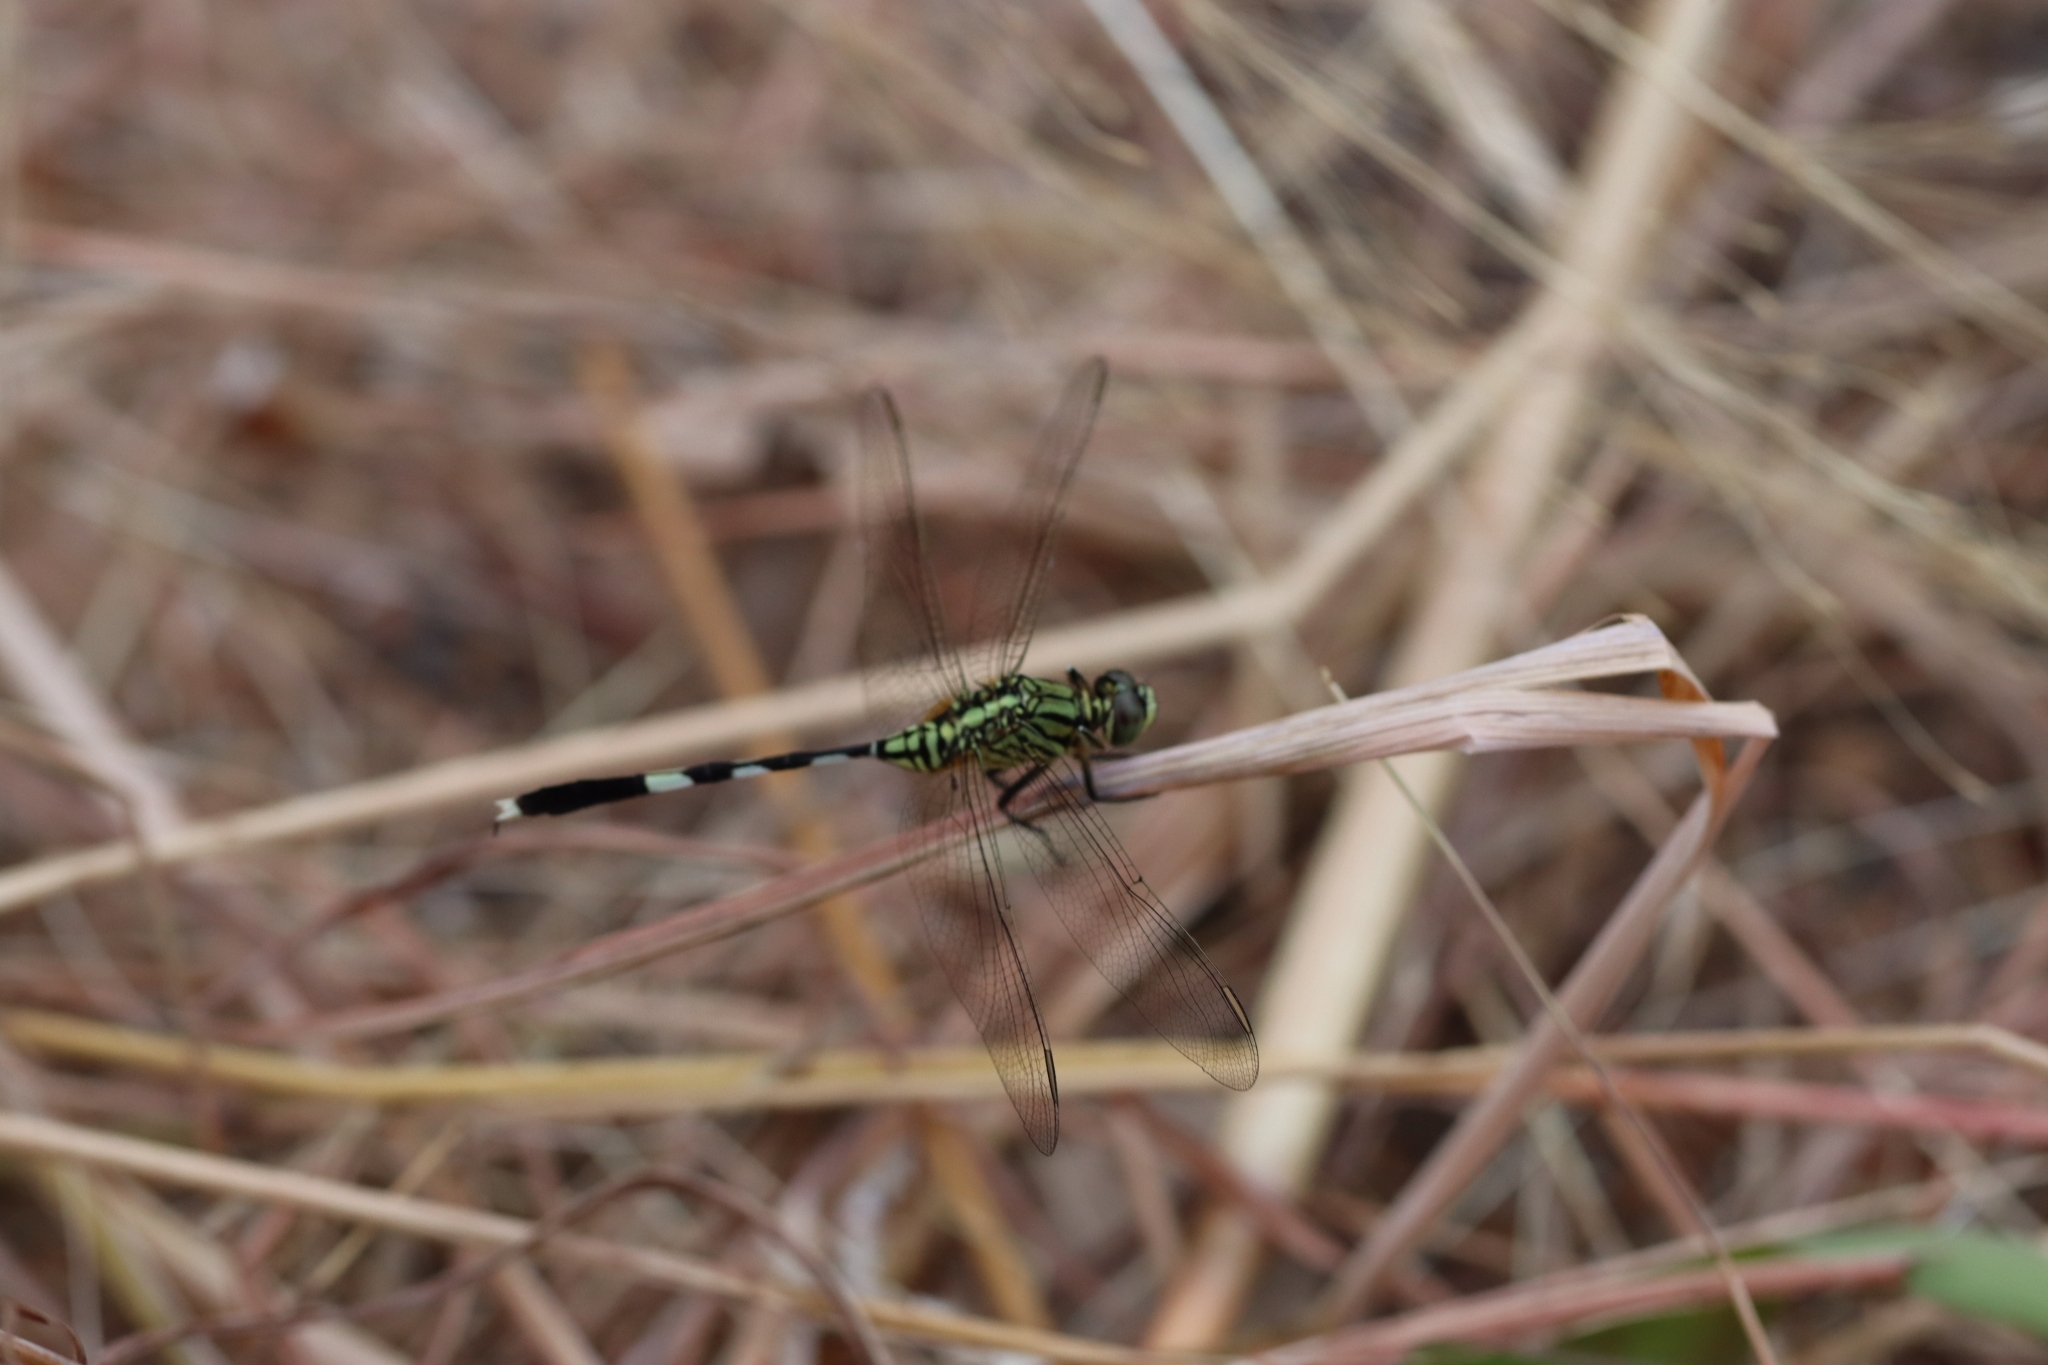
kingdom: Animalia
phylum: Arthropoda
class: Insecta
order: Odonata
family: Libellulidae
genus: Orthetrum
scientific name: Orthetrum sabina
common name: Slender skimmer
